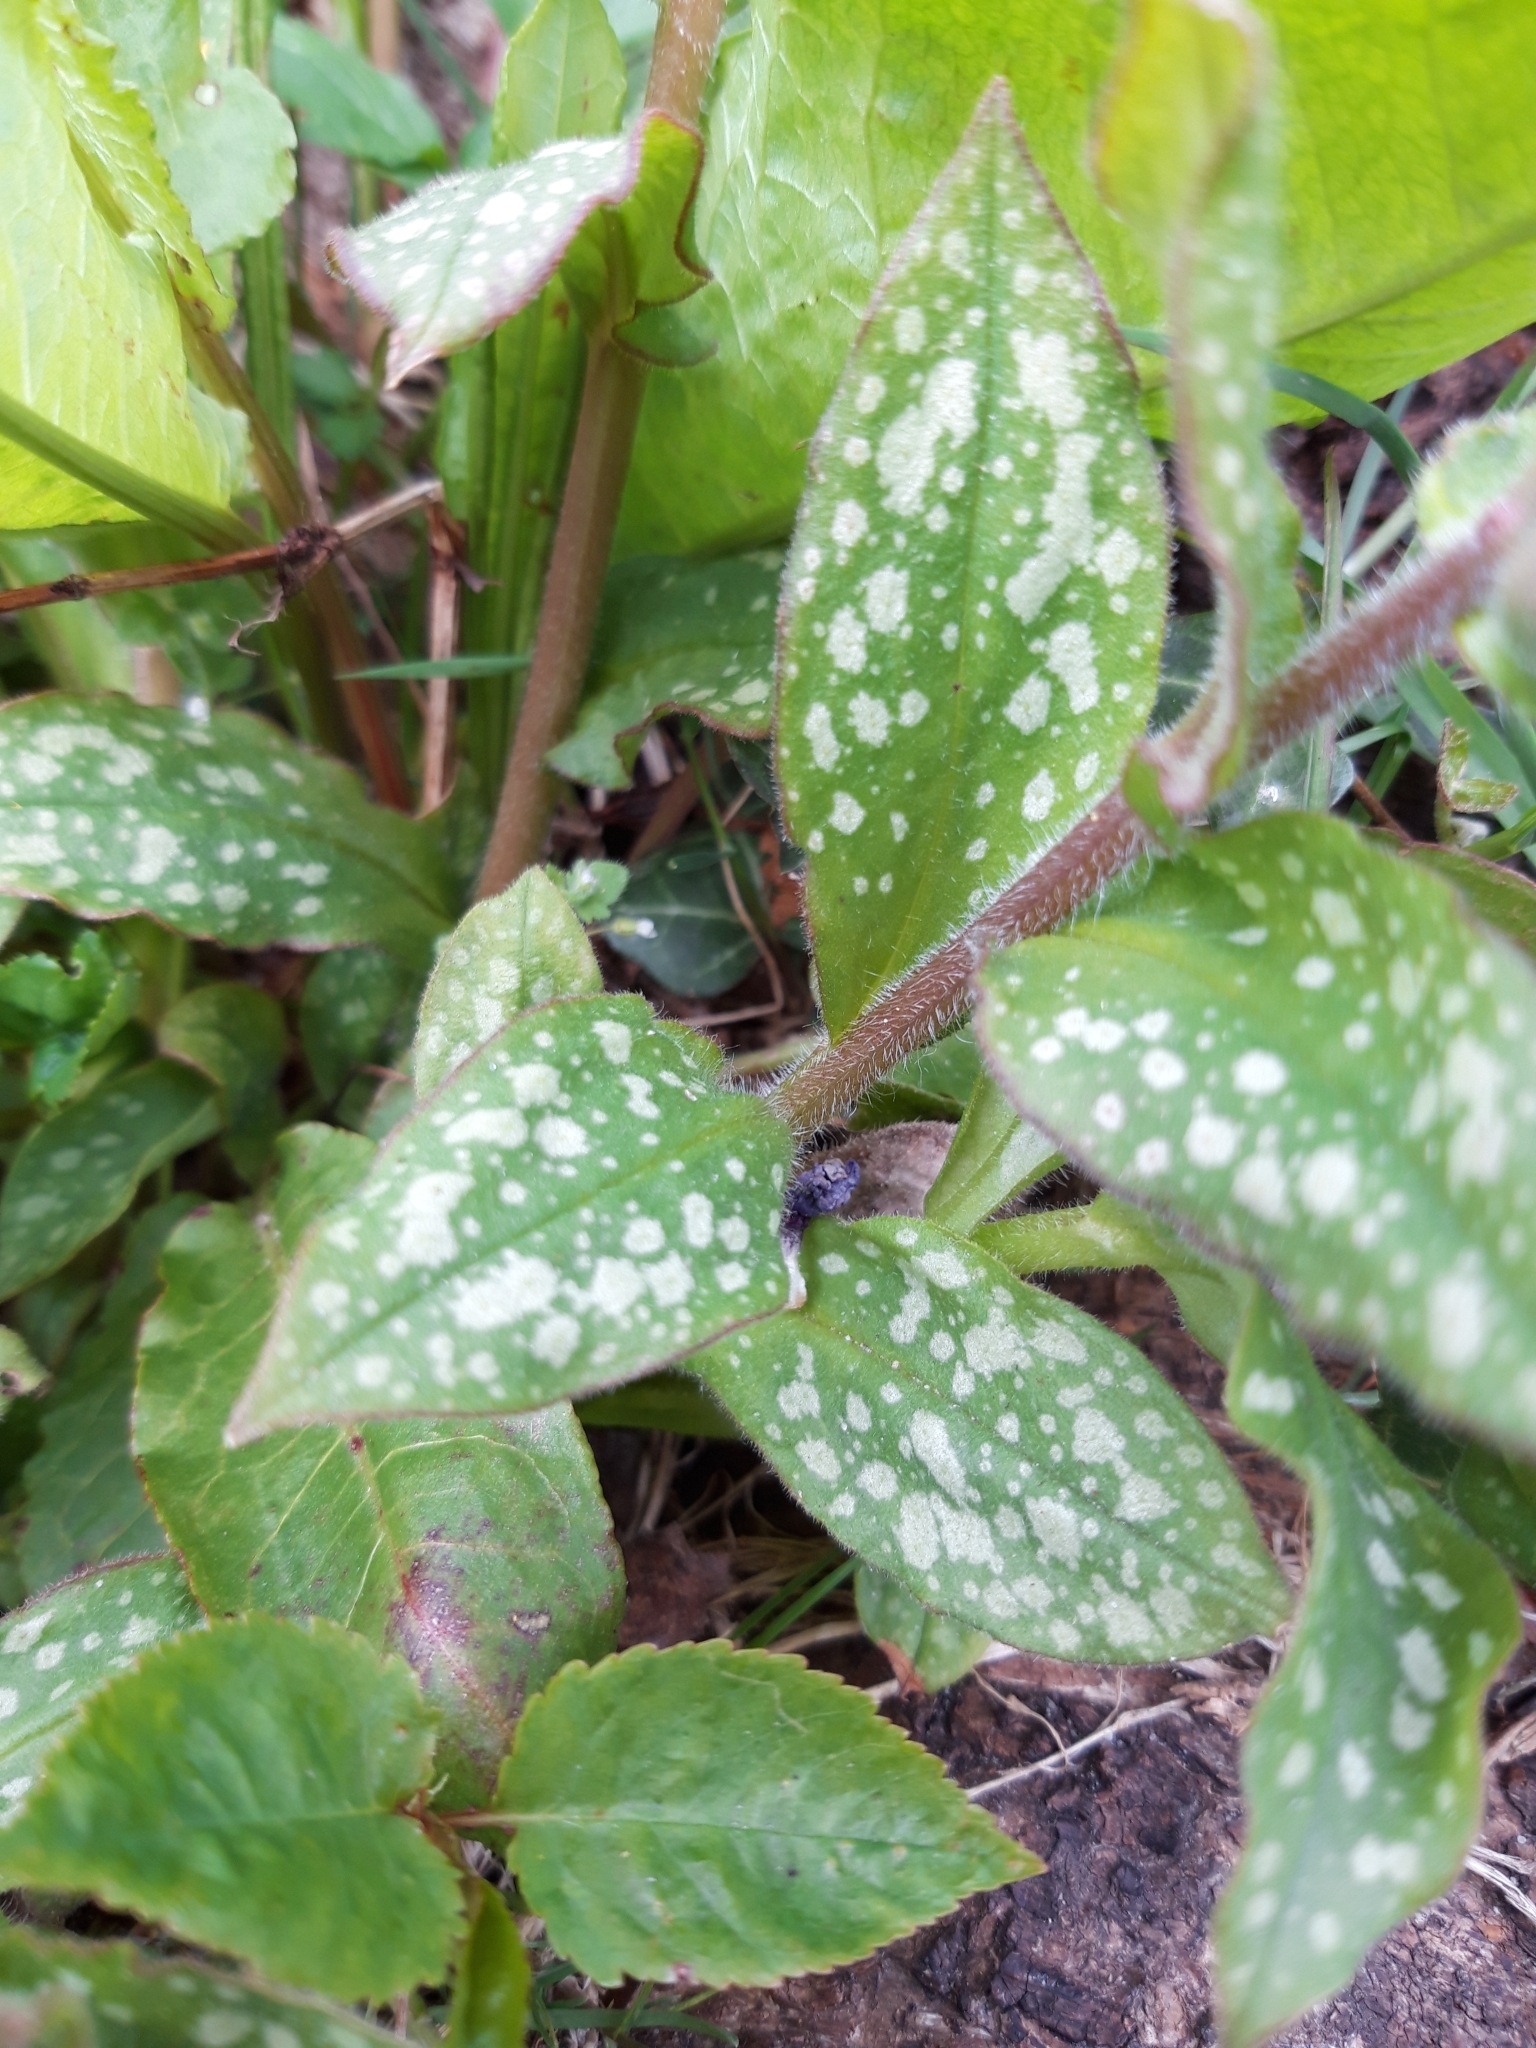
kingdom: Plantae
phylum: Tracheophyta
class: Magnoliopsida
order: Boraginales
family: Boraginaceae
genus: Pulmonaria
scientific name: Pulmonaria officinalis
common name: Lungwort
